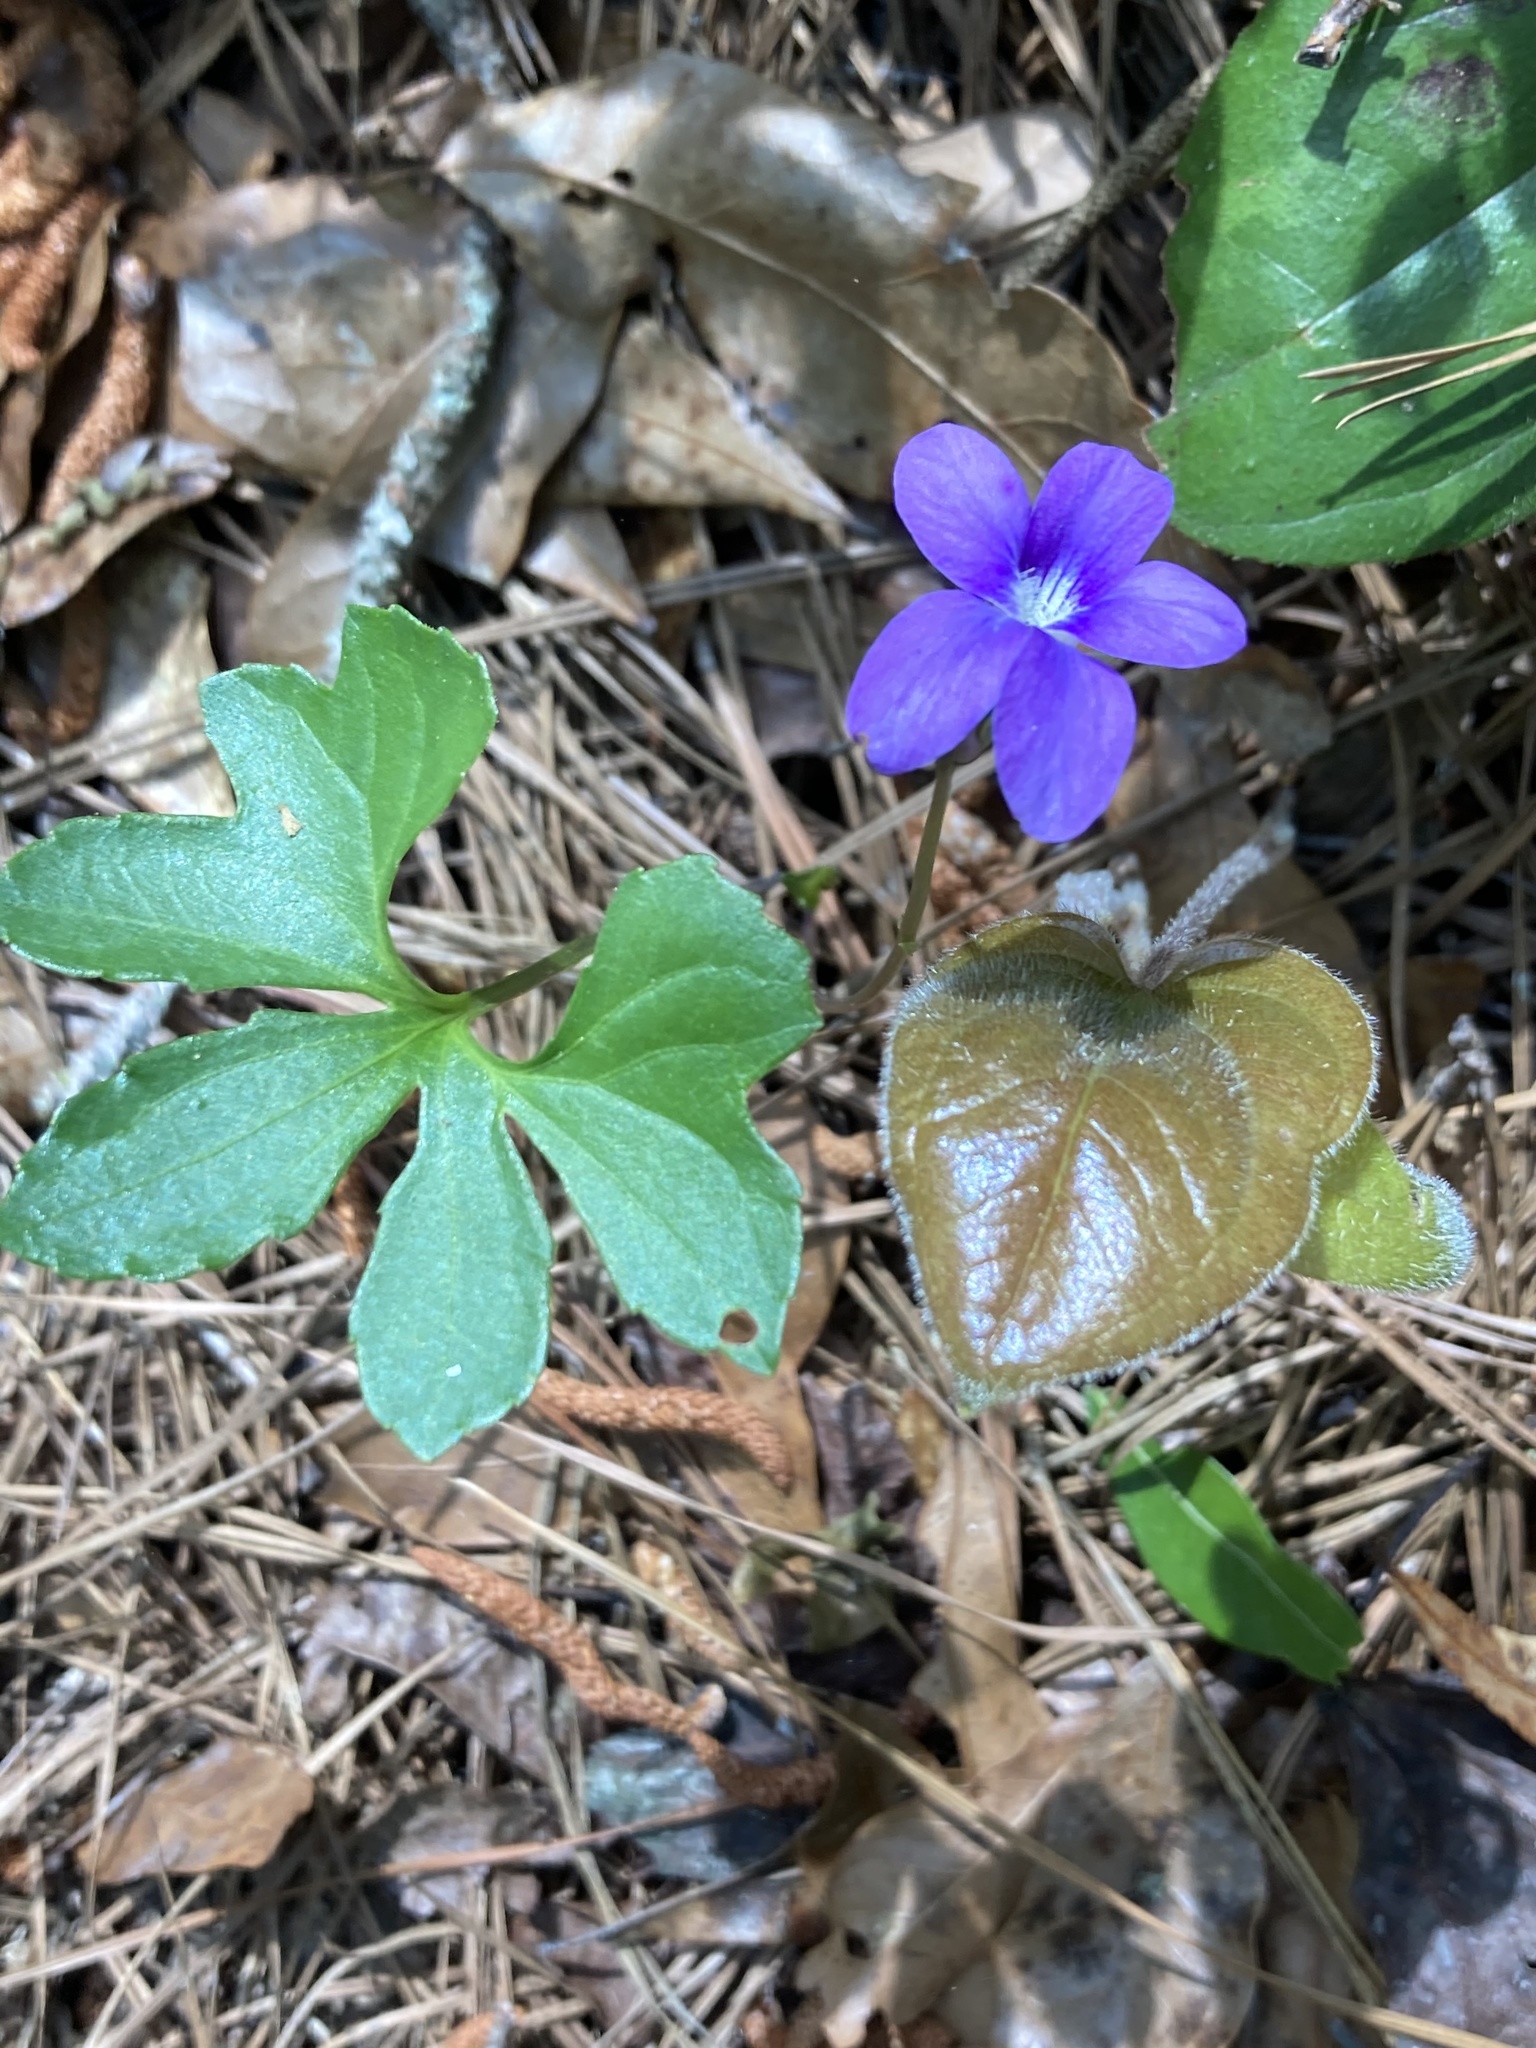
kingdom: Plantae
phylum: Tracheophyta
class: Magnoliopsida
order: Malpighiales
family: Violaceae
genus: Viola
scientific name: Viola palmata
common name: Early blue violet
